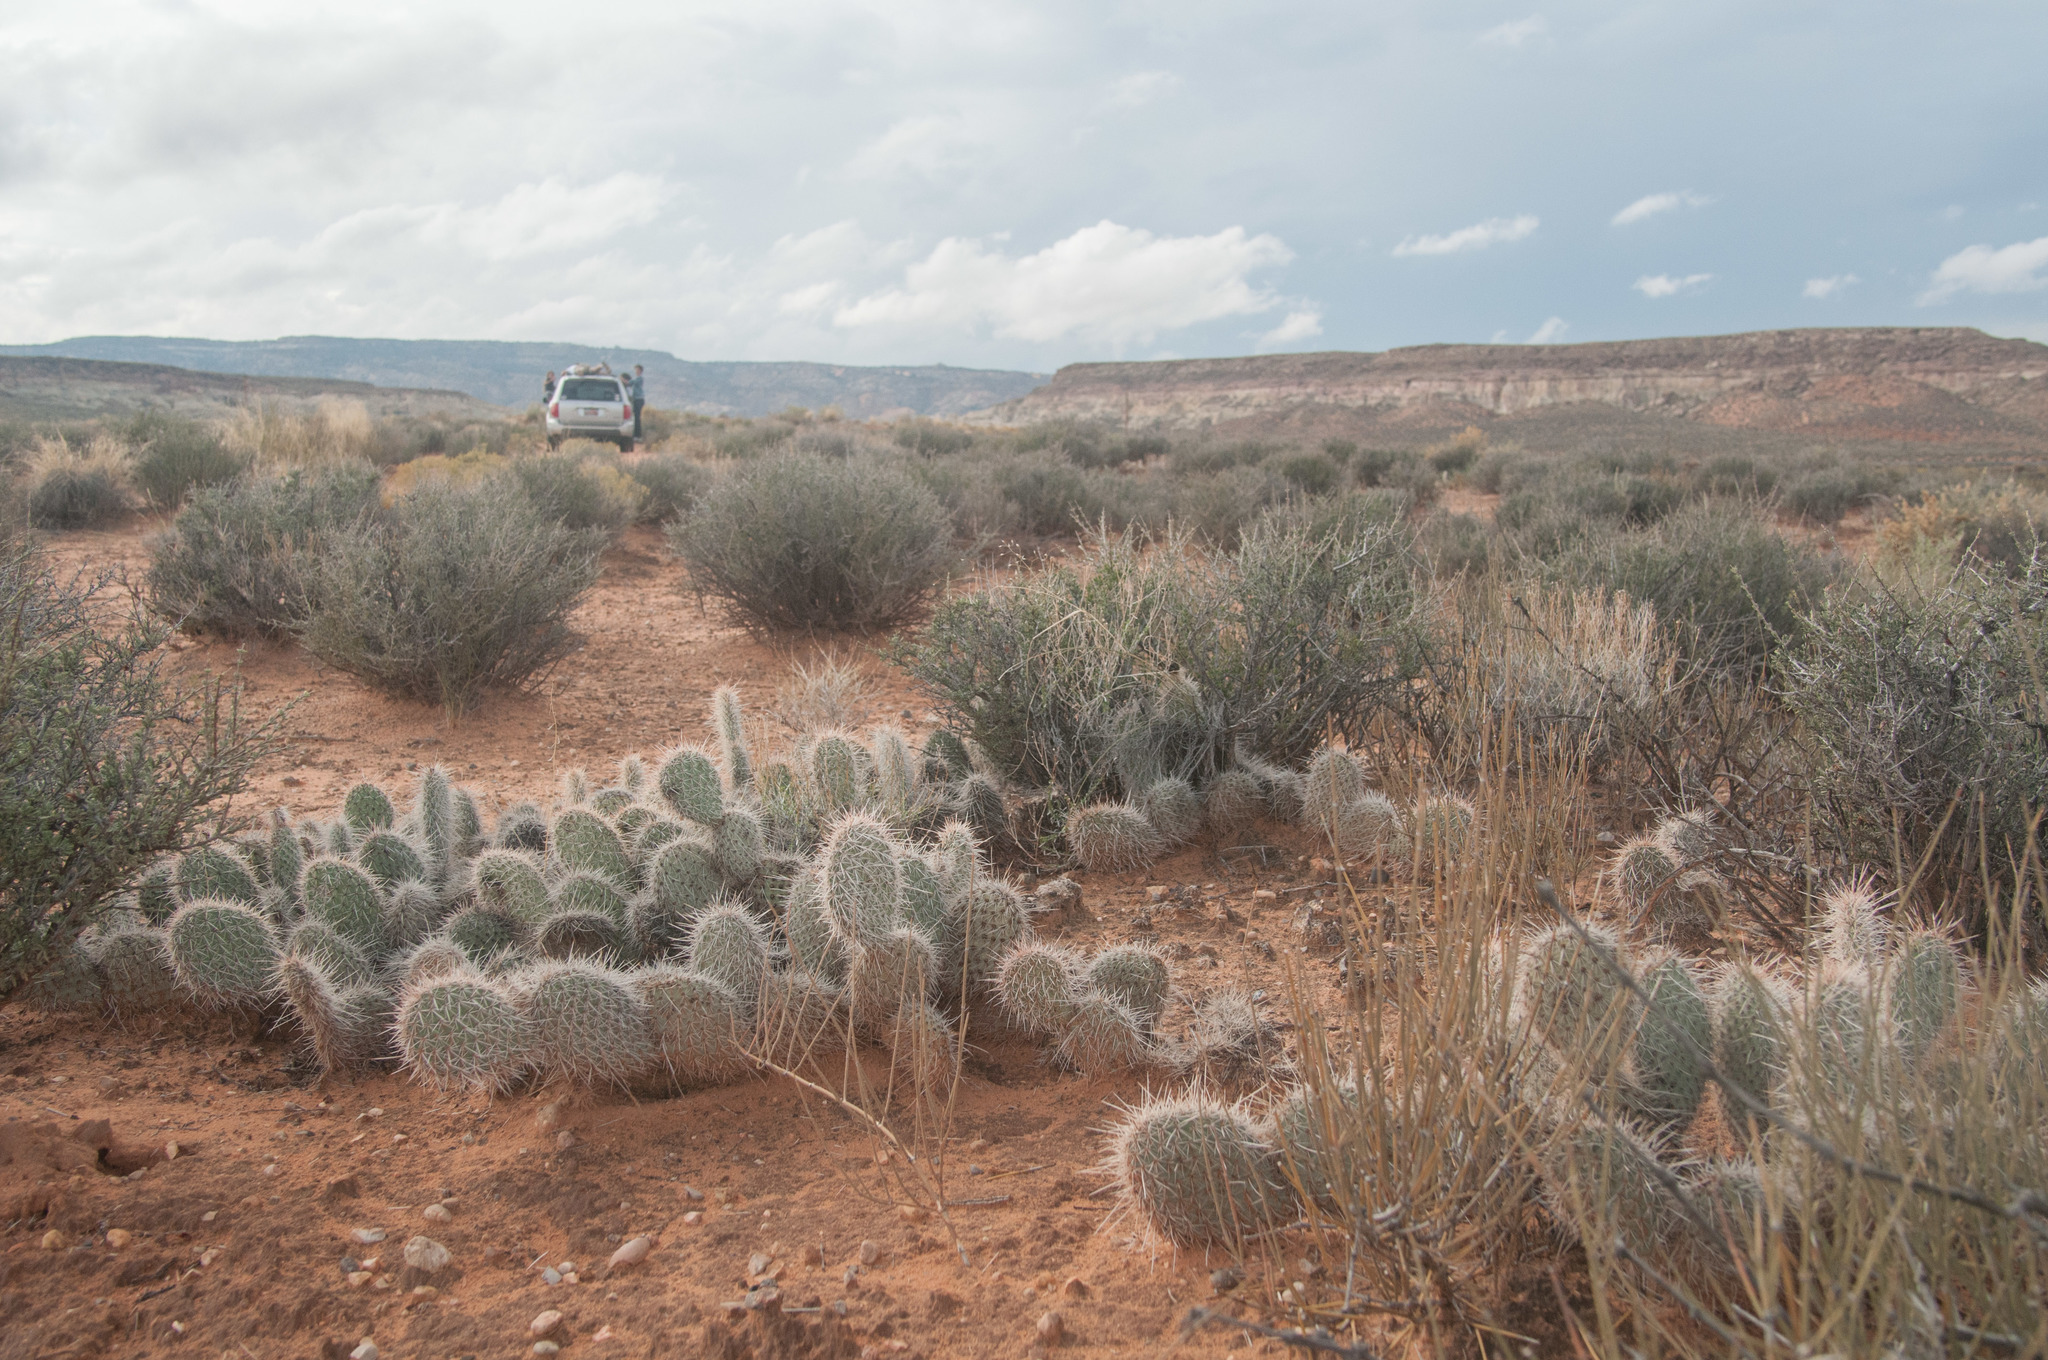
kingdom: Plantae
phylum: Tracheophyta
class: Magnoliopsida
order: Caryophyllales
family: Cactaceae
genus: Opuntia
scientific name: Opuntia polyacantha
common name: Plains prickly-pear
